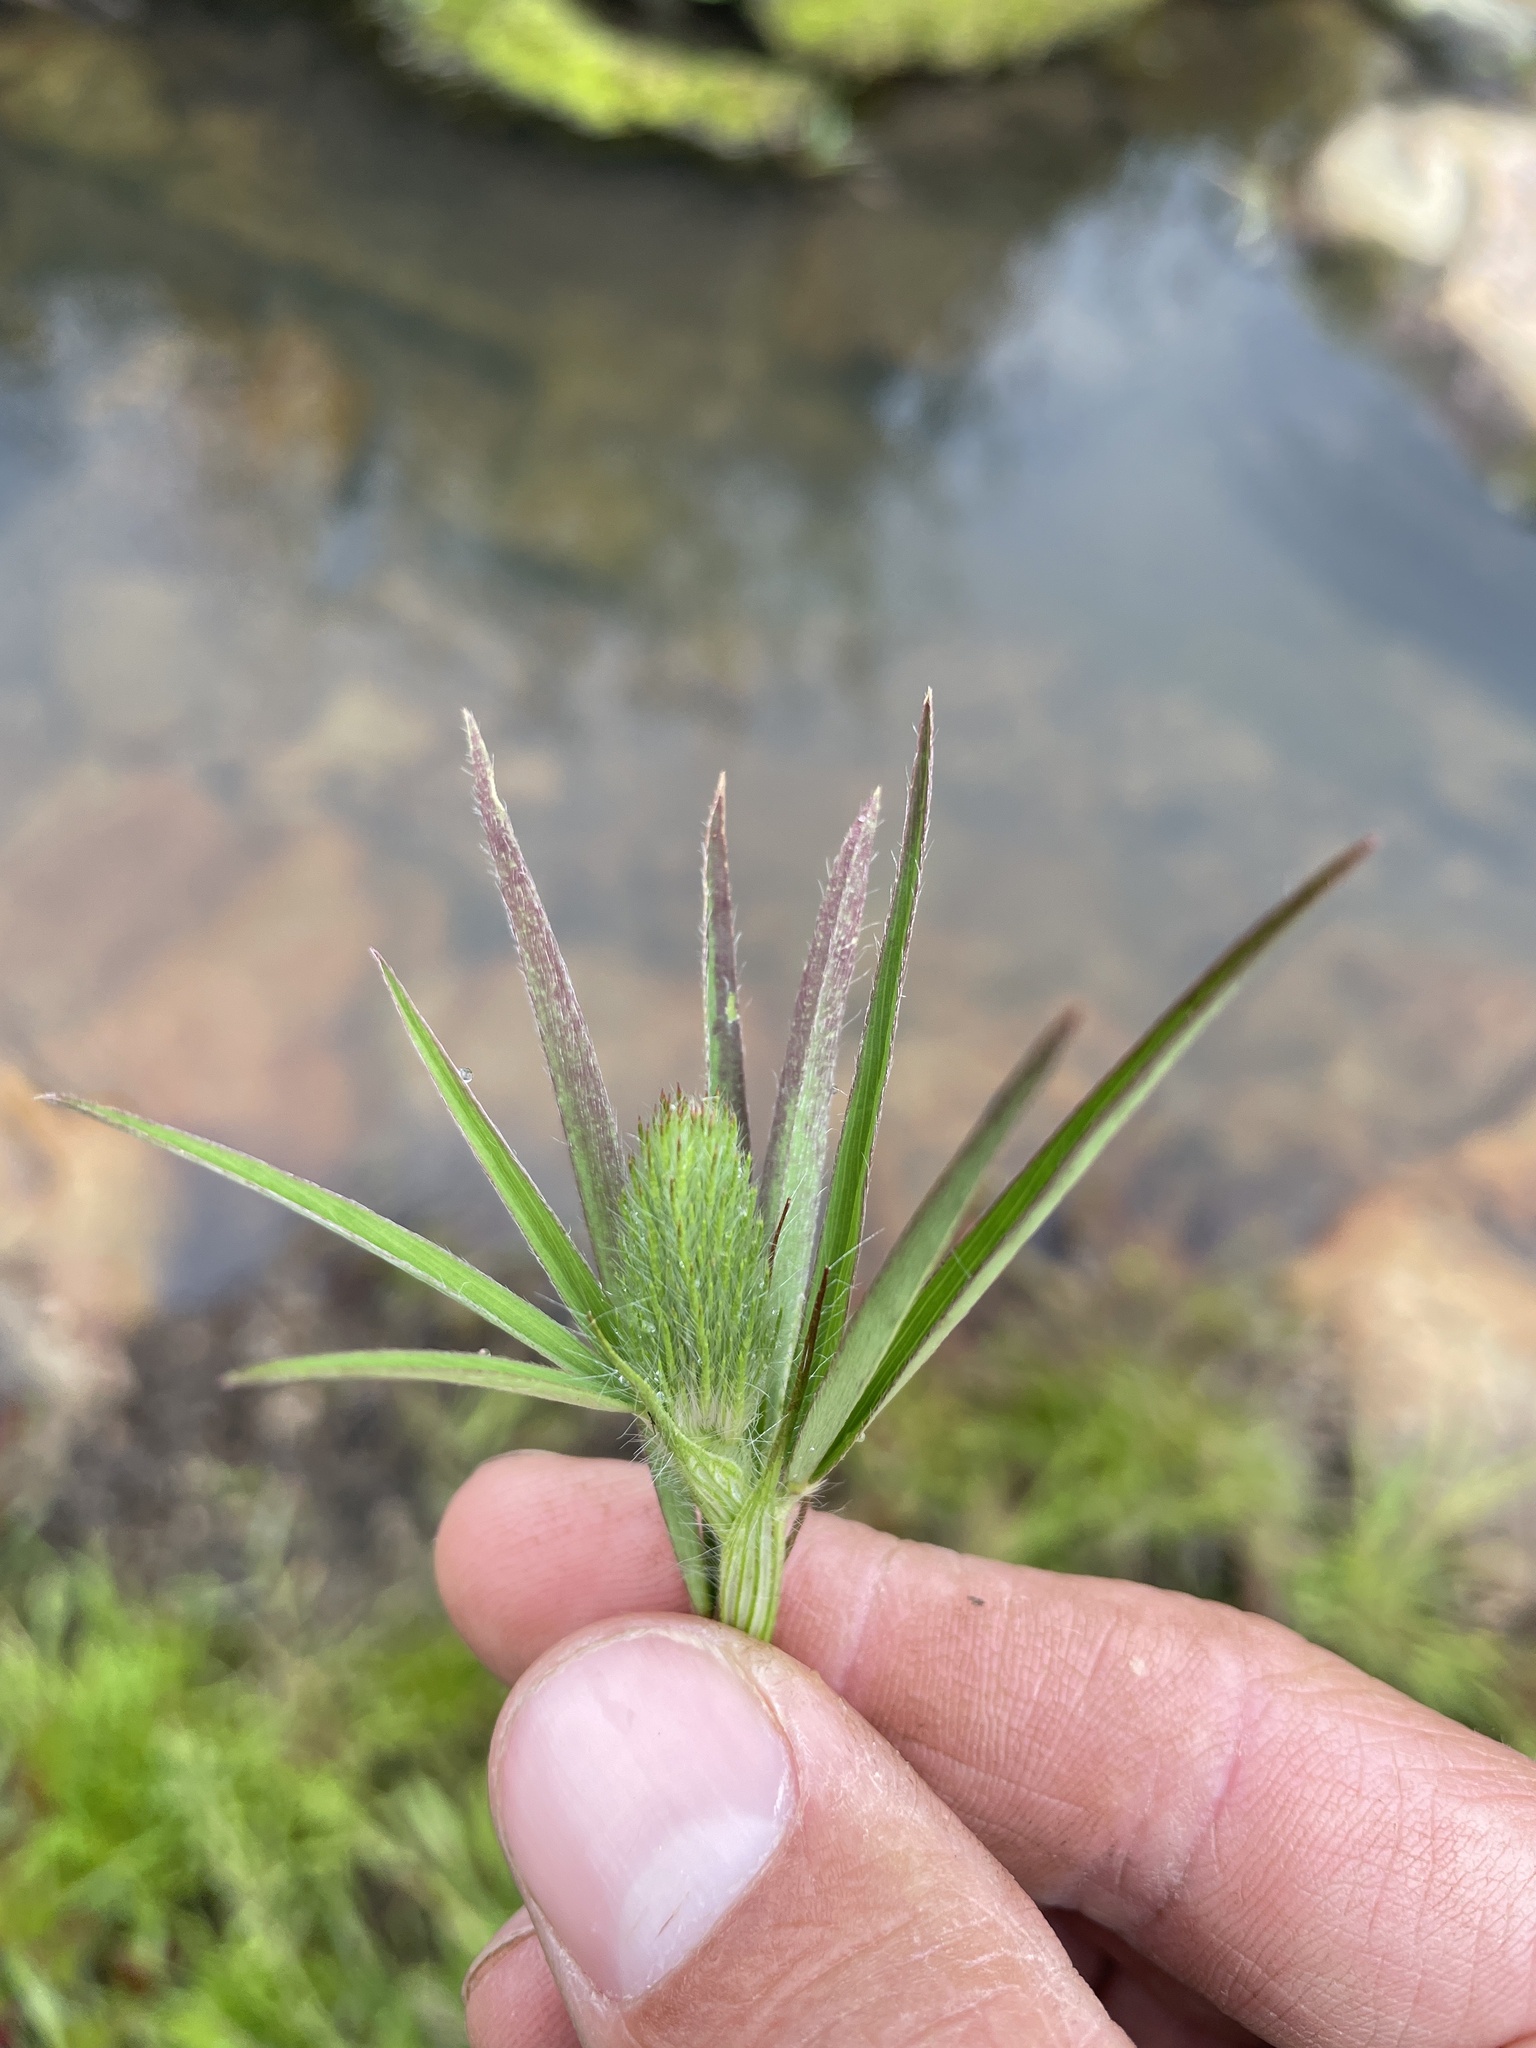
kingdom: Plantae
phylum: Tracheophyta
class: Magnoliopsida
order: Fabales
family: Fabaceae
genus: Trifolium
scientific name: Trifolium angustifolium
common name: Narrow clover
